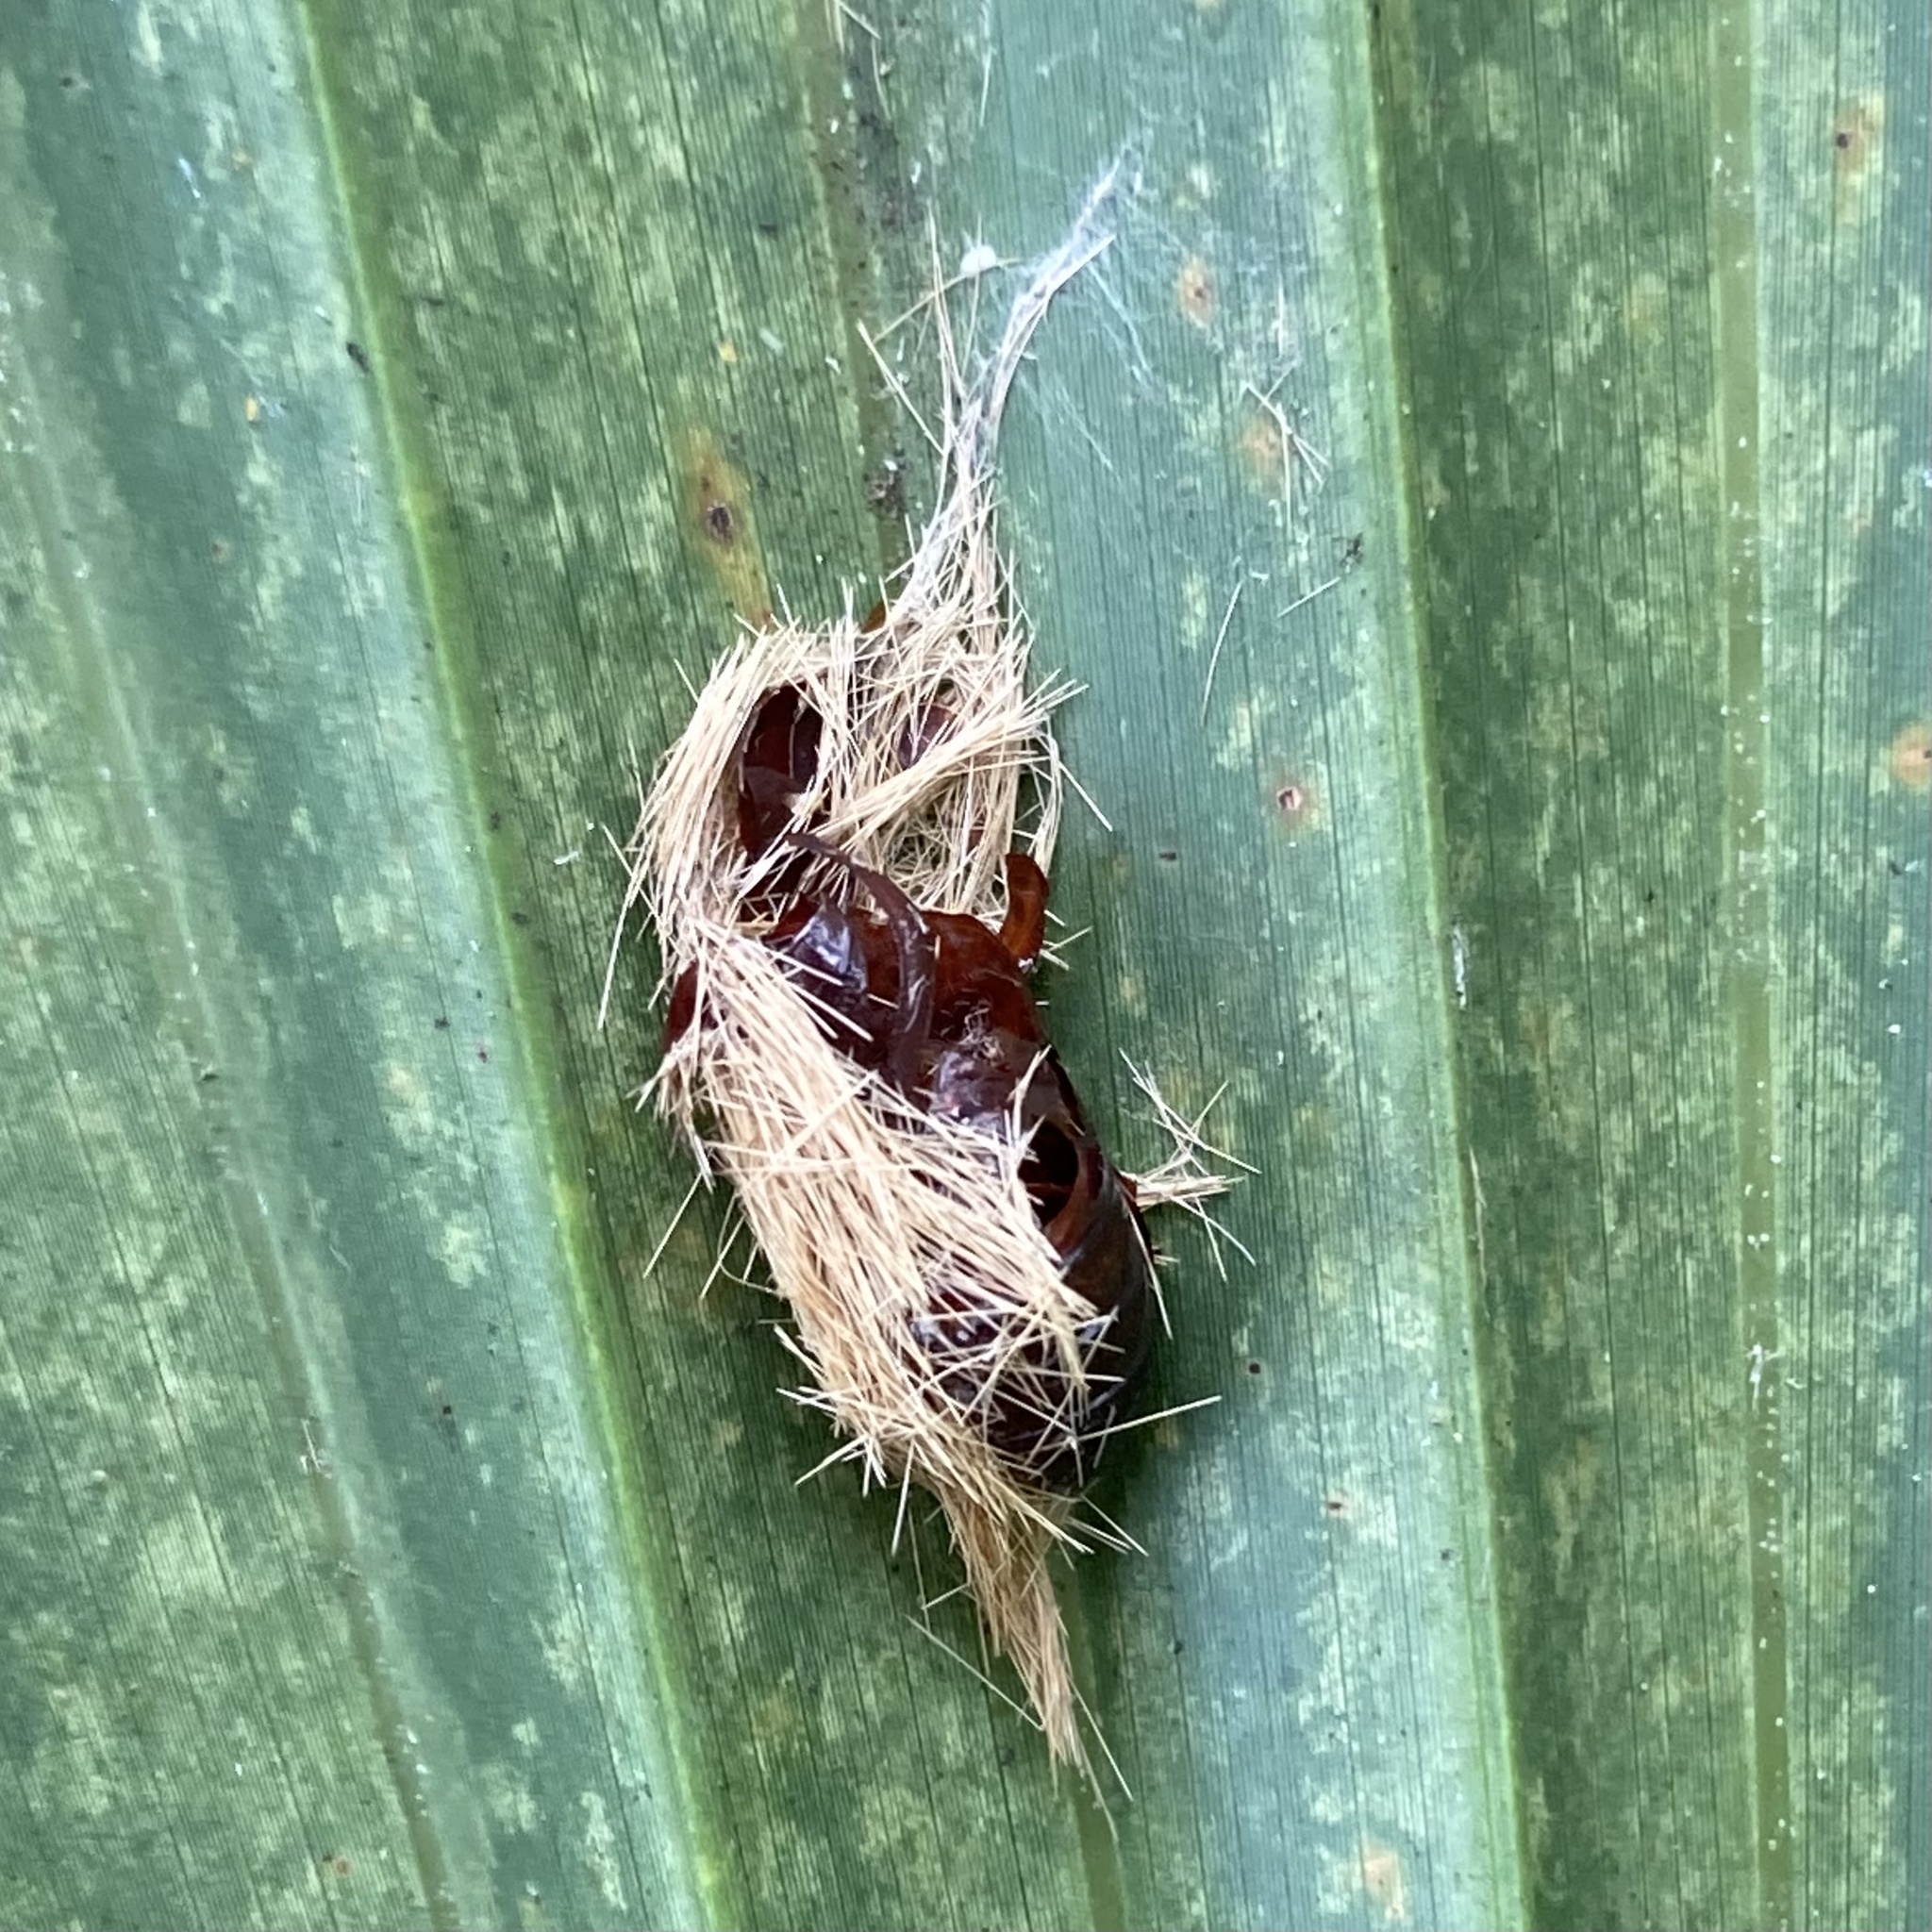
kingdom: Animalia
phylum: Arthropoda
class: Insecta
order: Lepidoptera
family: Erebidae
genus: Lymire
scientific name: Lymire edwardsii
